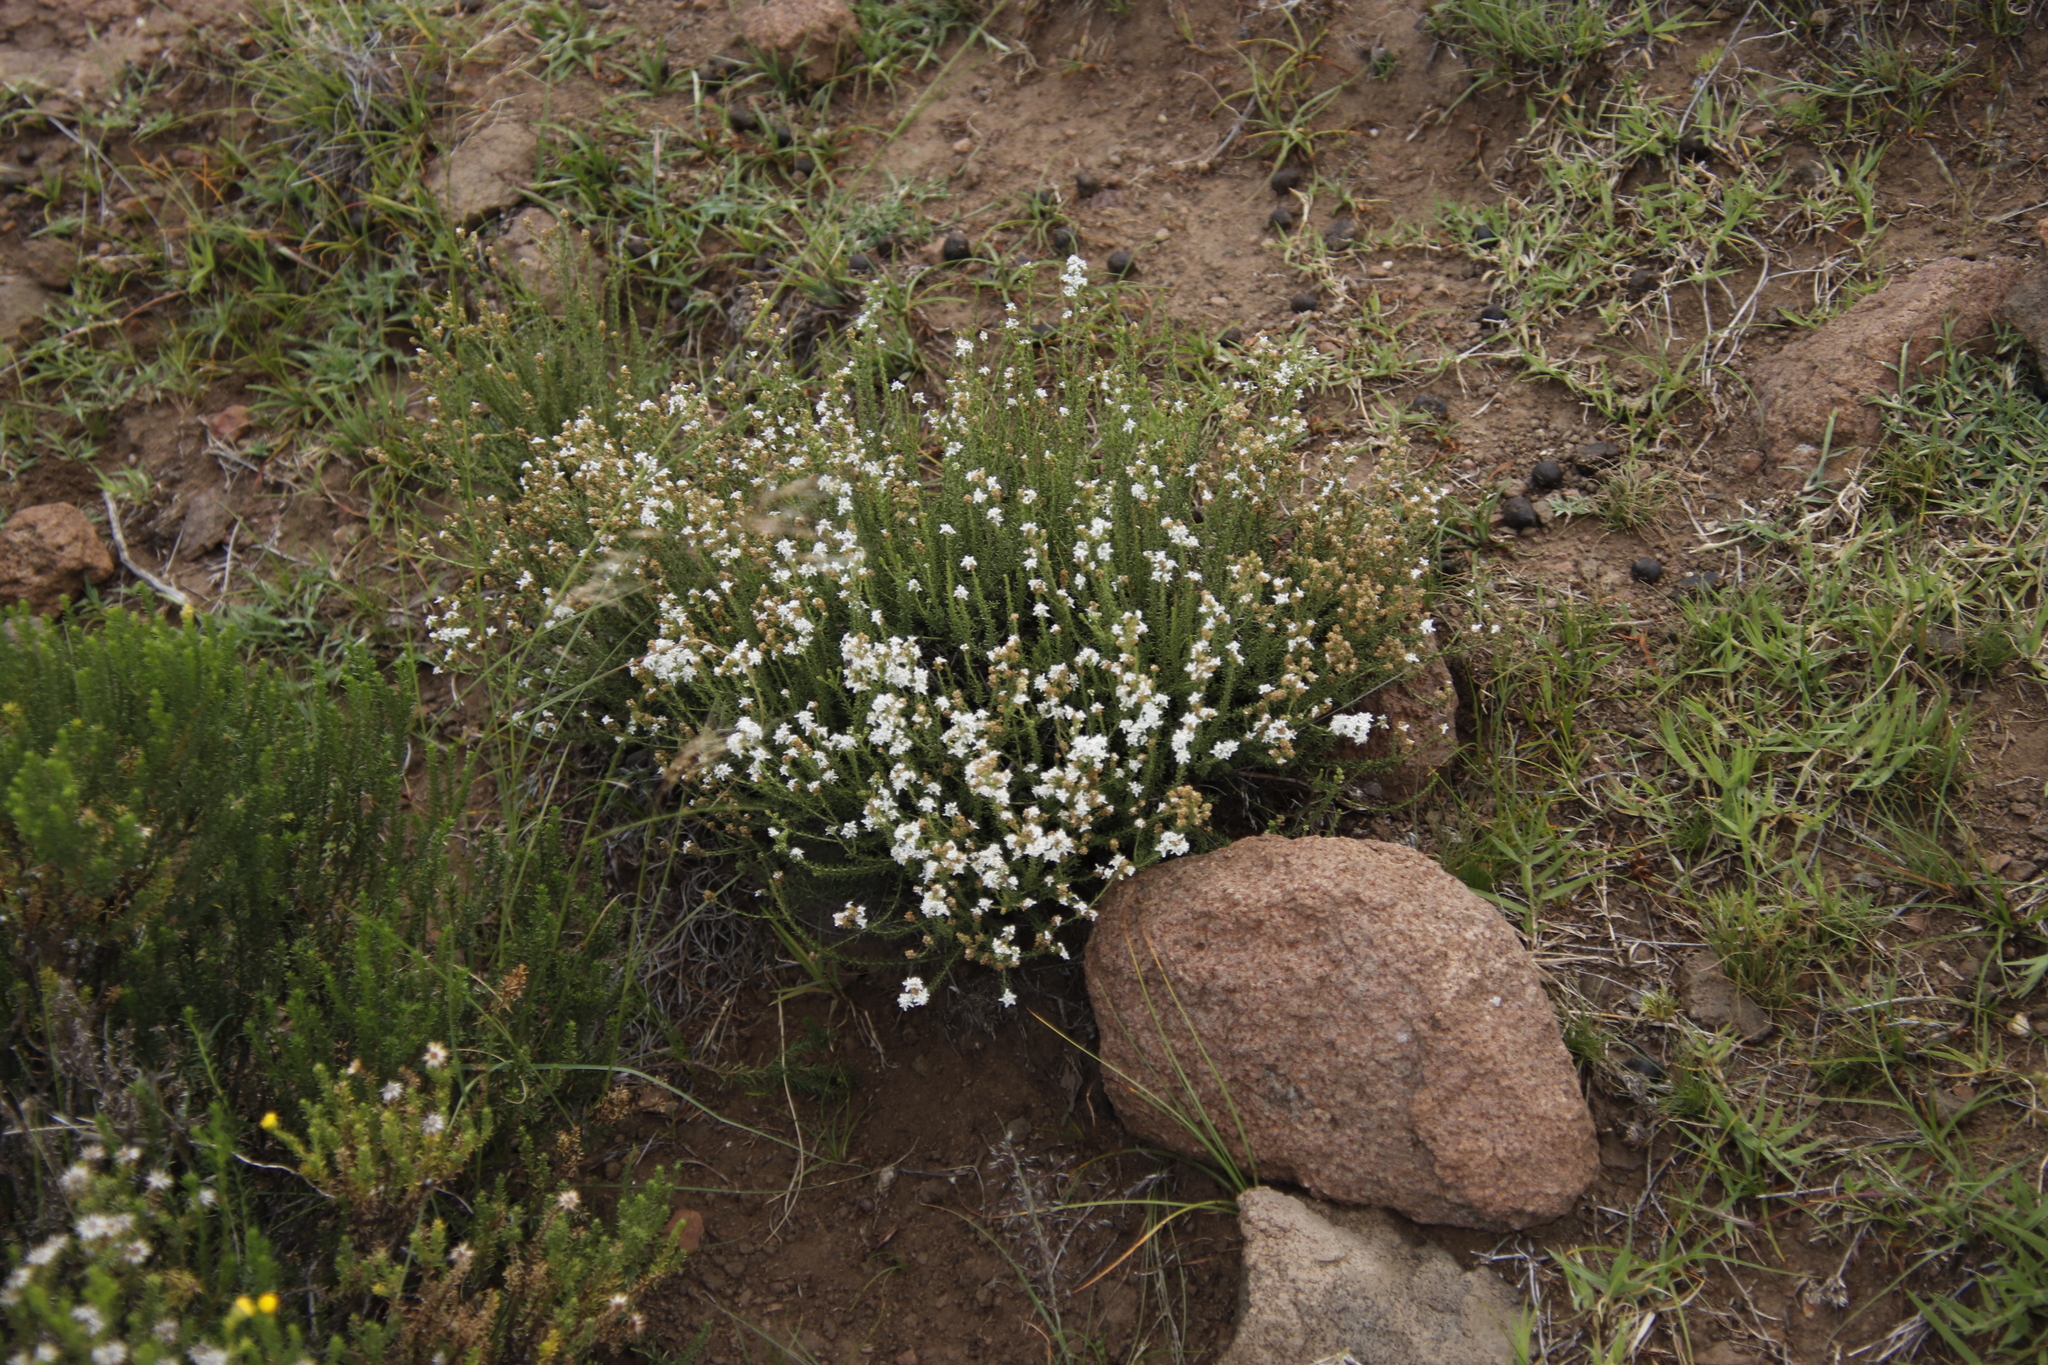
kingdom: Plantae
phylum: Tracheophyta
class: Magnoliopsida
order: Lamiales
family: Scrophulariaceae
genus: Selago
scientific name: Selago densiflora
